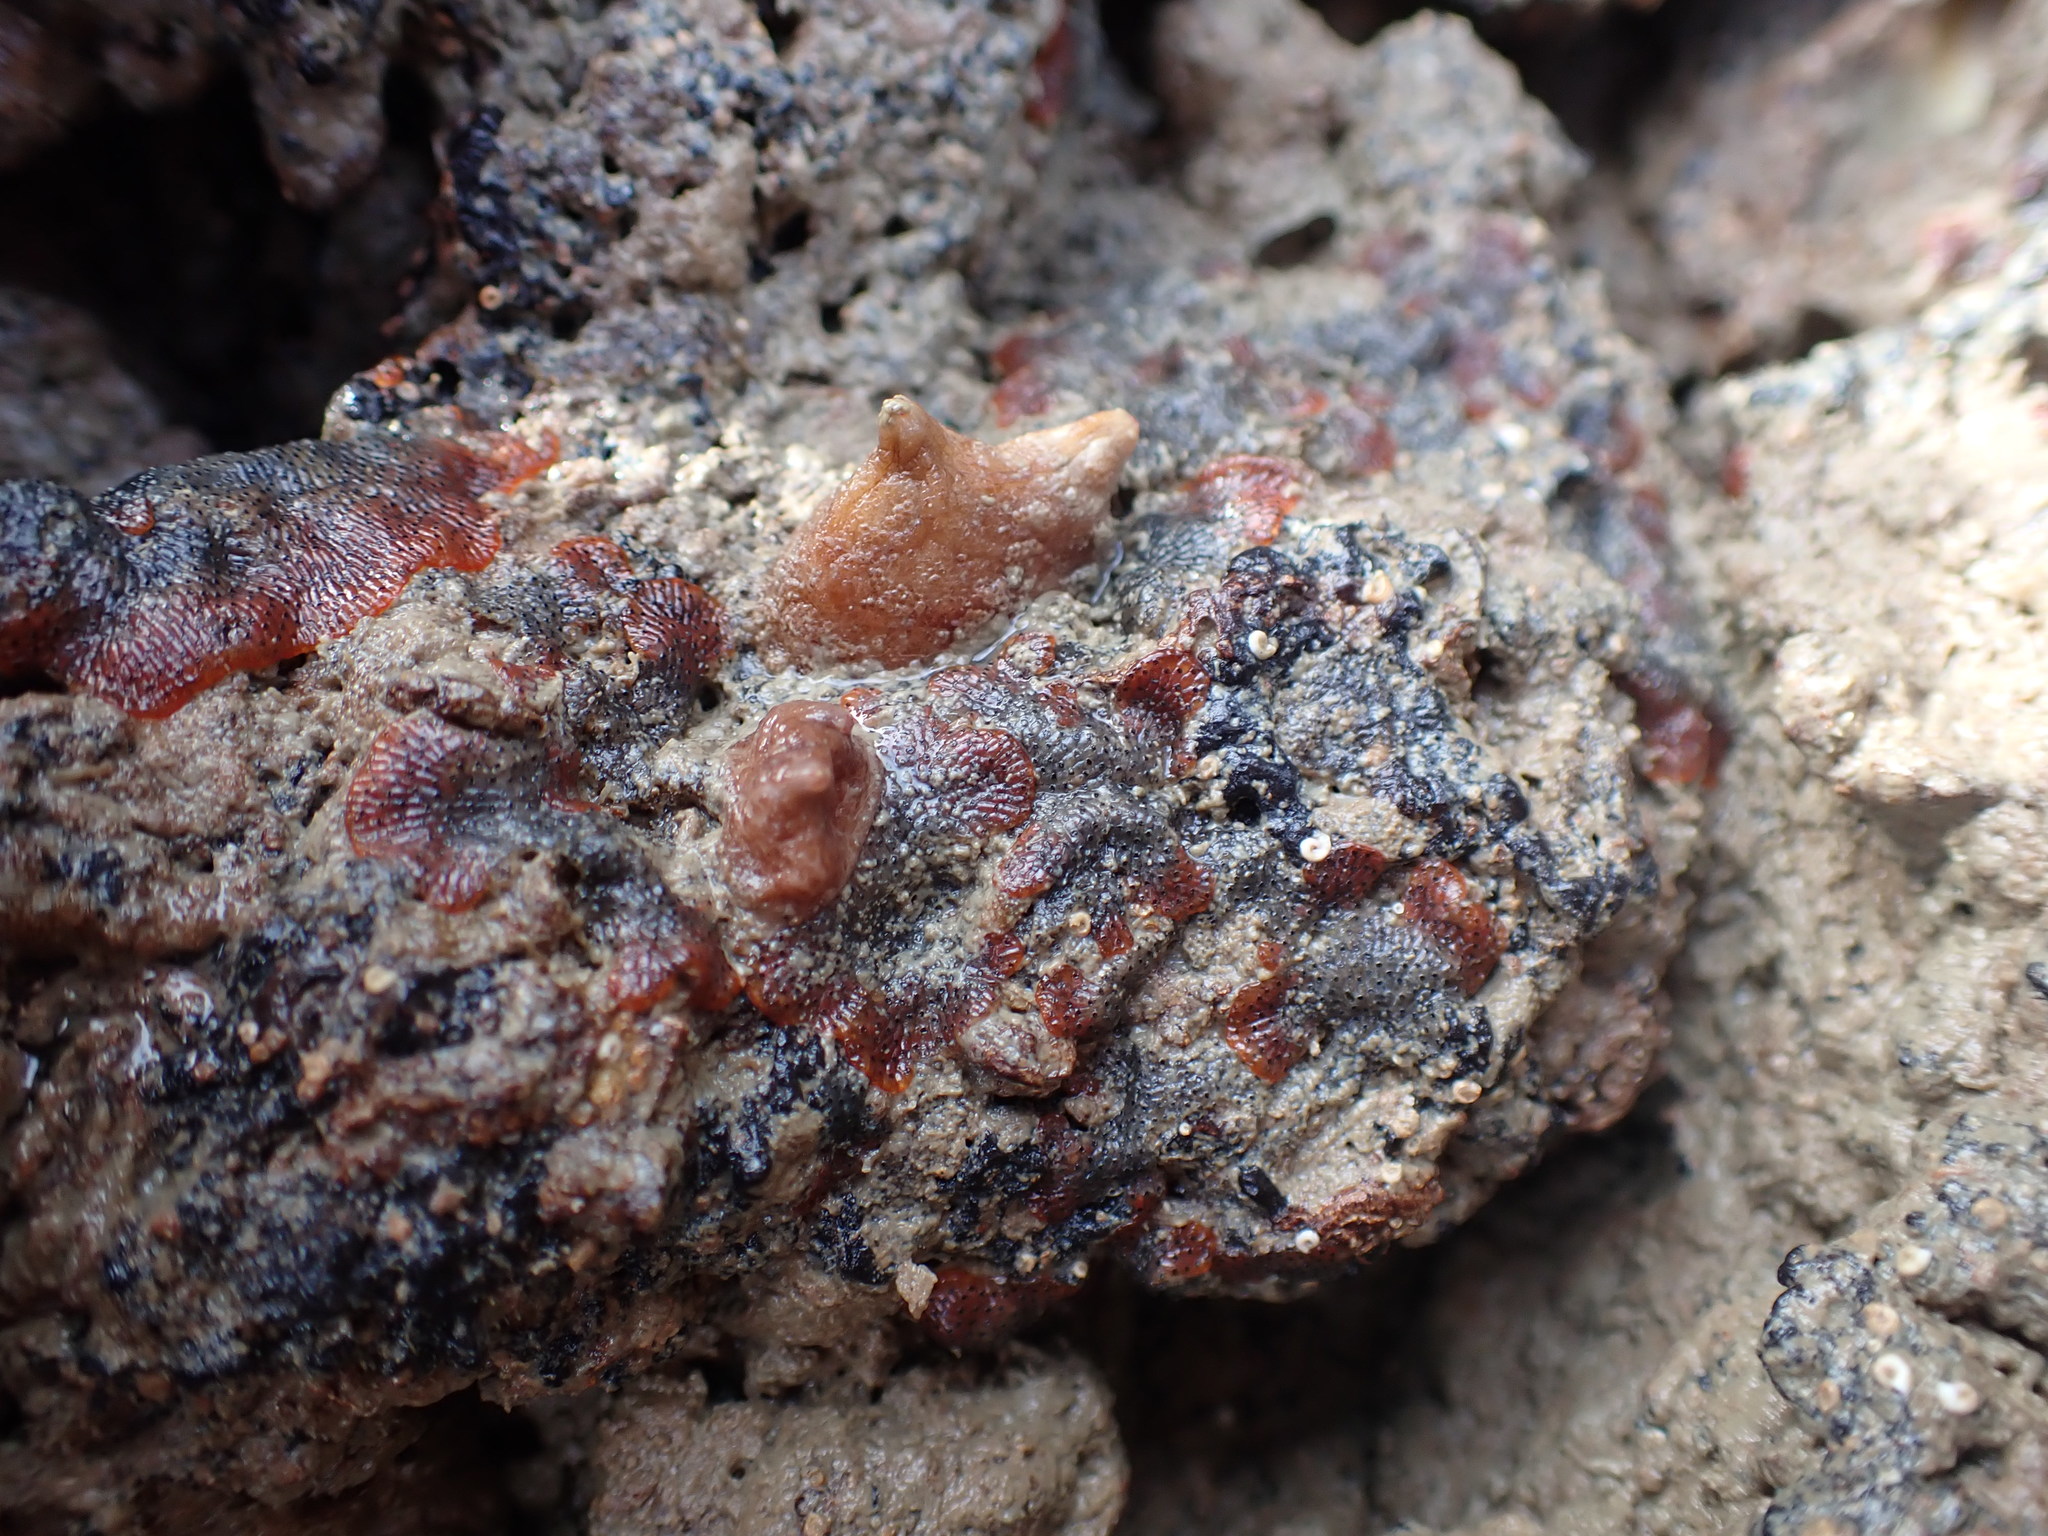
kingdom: Animalia
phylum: Bryozoa
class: Gymnolaemata
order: Cheilostomatida
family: Watersiporidae
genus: Watersipora
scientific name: Watersipora subatra
